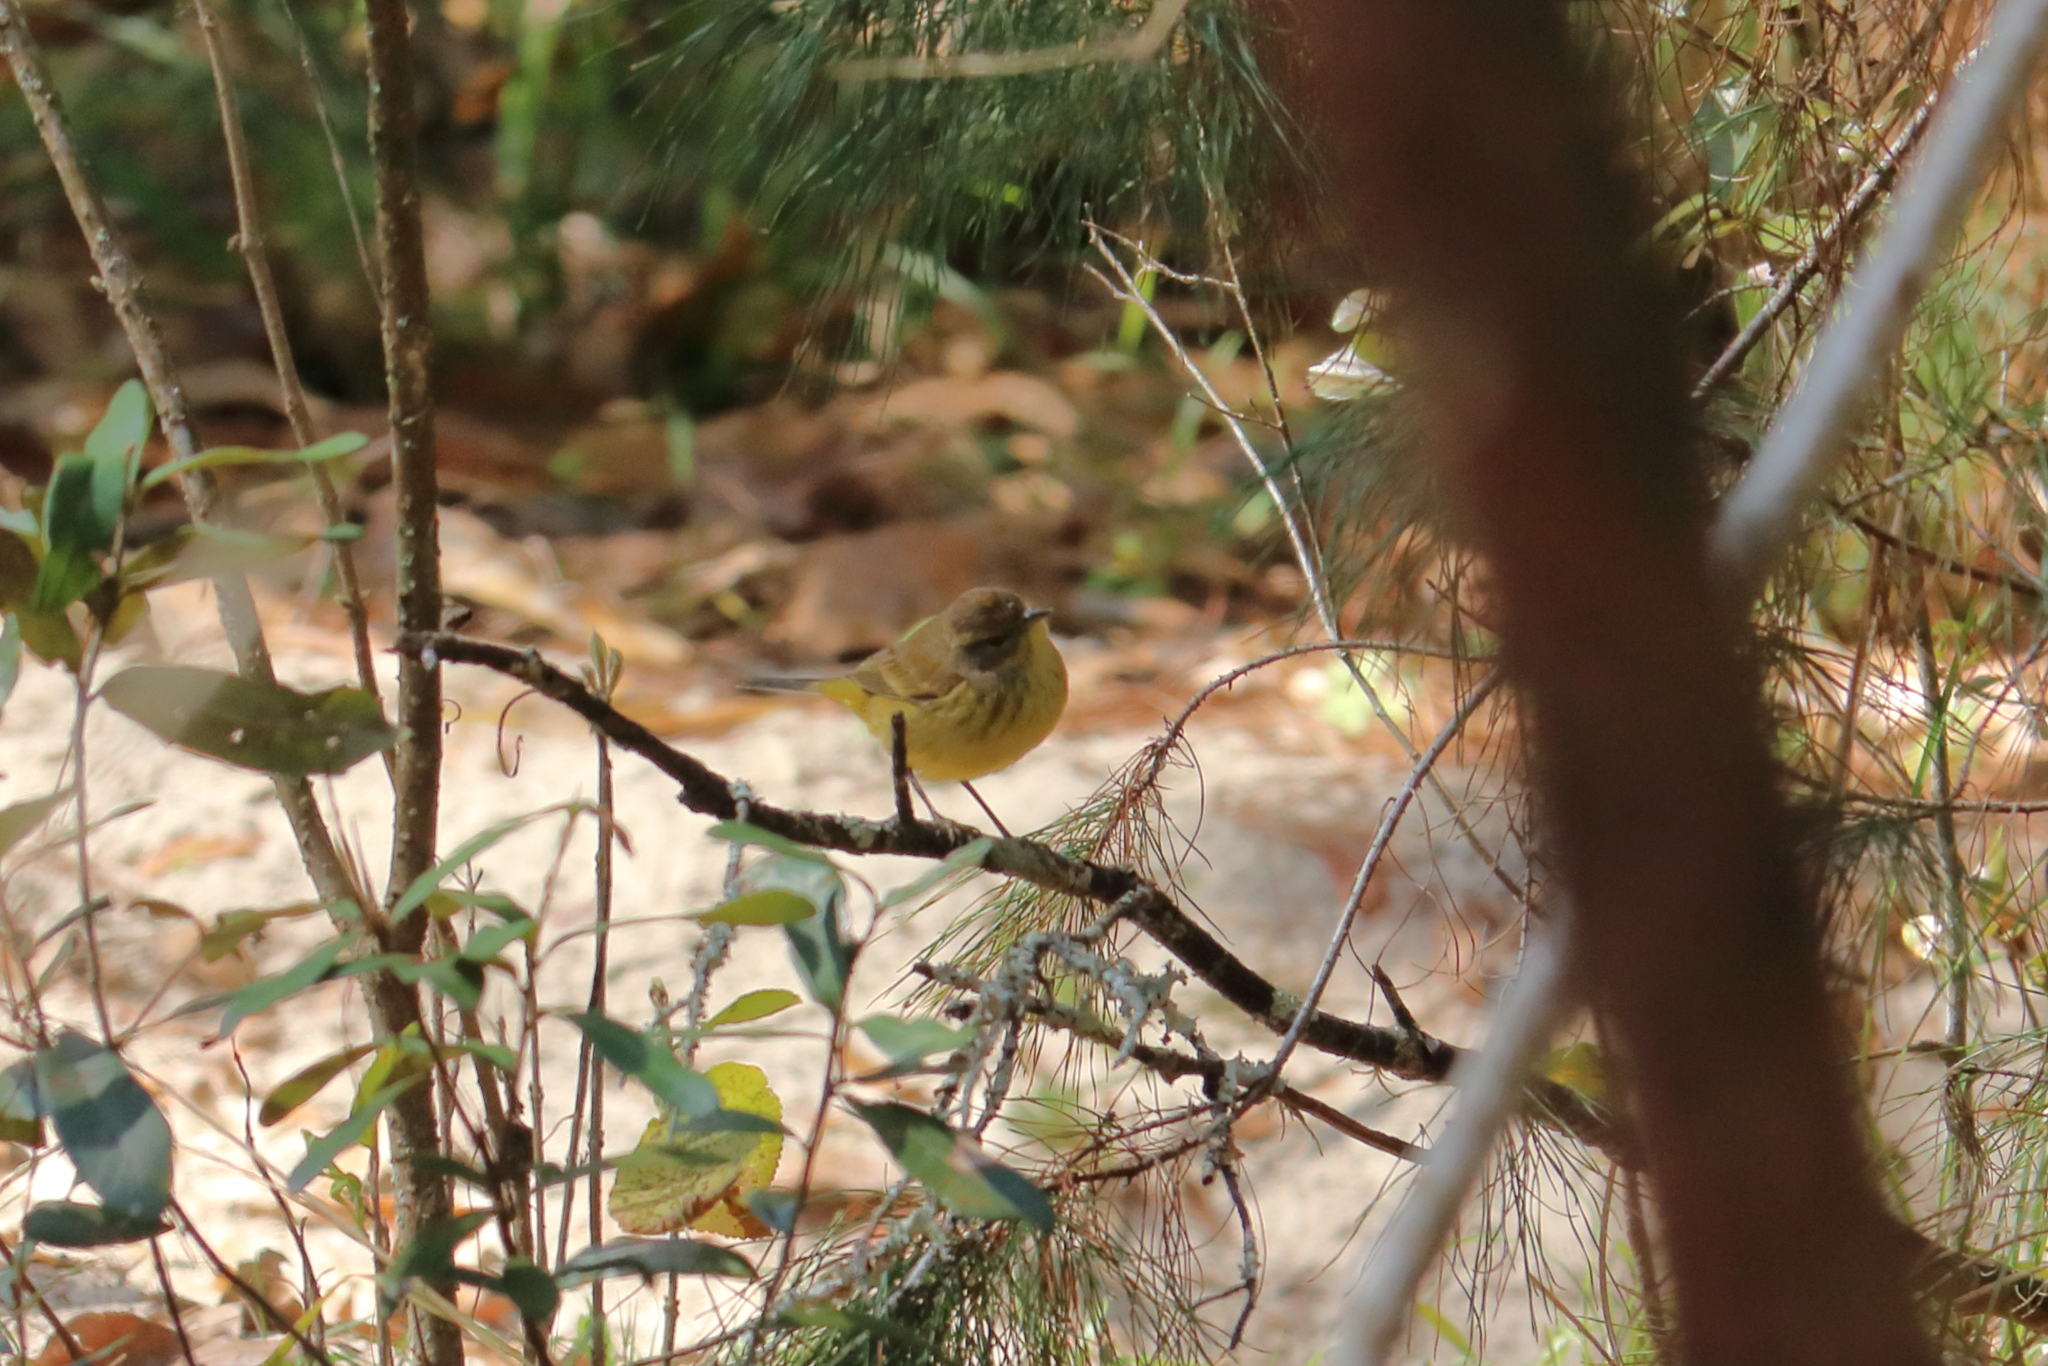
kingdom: Animalia
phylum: Chordata
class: Aves
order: Passeriformes
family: Parulidae
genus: Setophaga
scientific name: Setophaga palmarum
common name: Palm warbler
